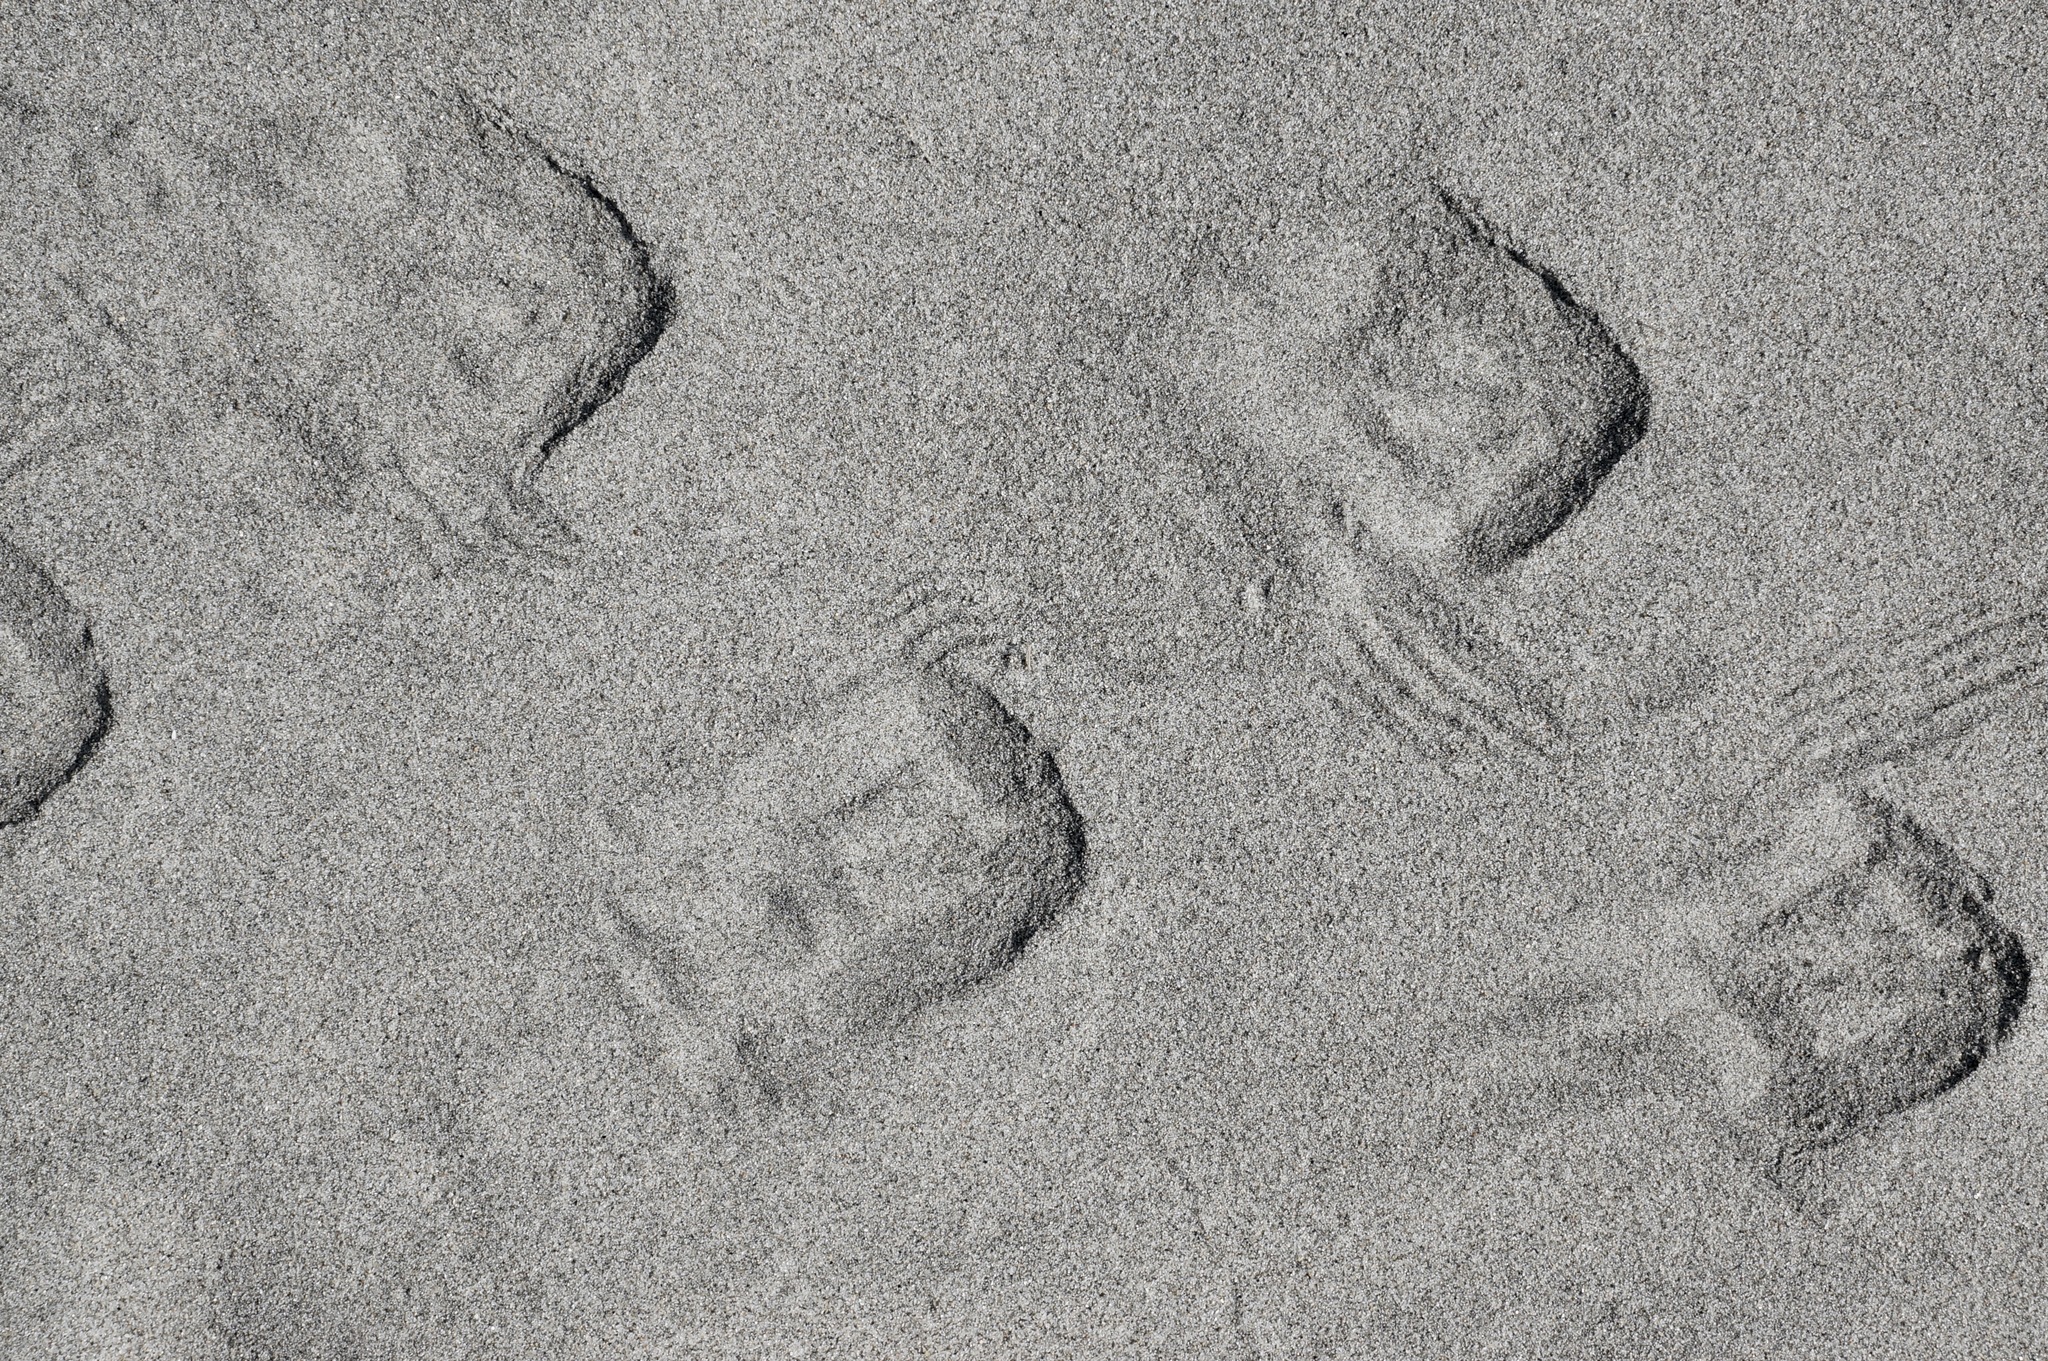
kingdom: Animalia
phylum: Chordata
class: Aves
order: Sphenisciformes
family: Spheniscidae
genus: Eudyptula
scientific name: Eudyptula minor
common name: Little penguin
